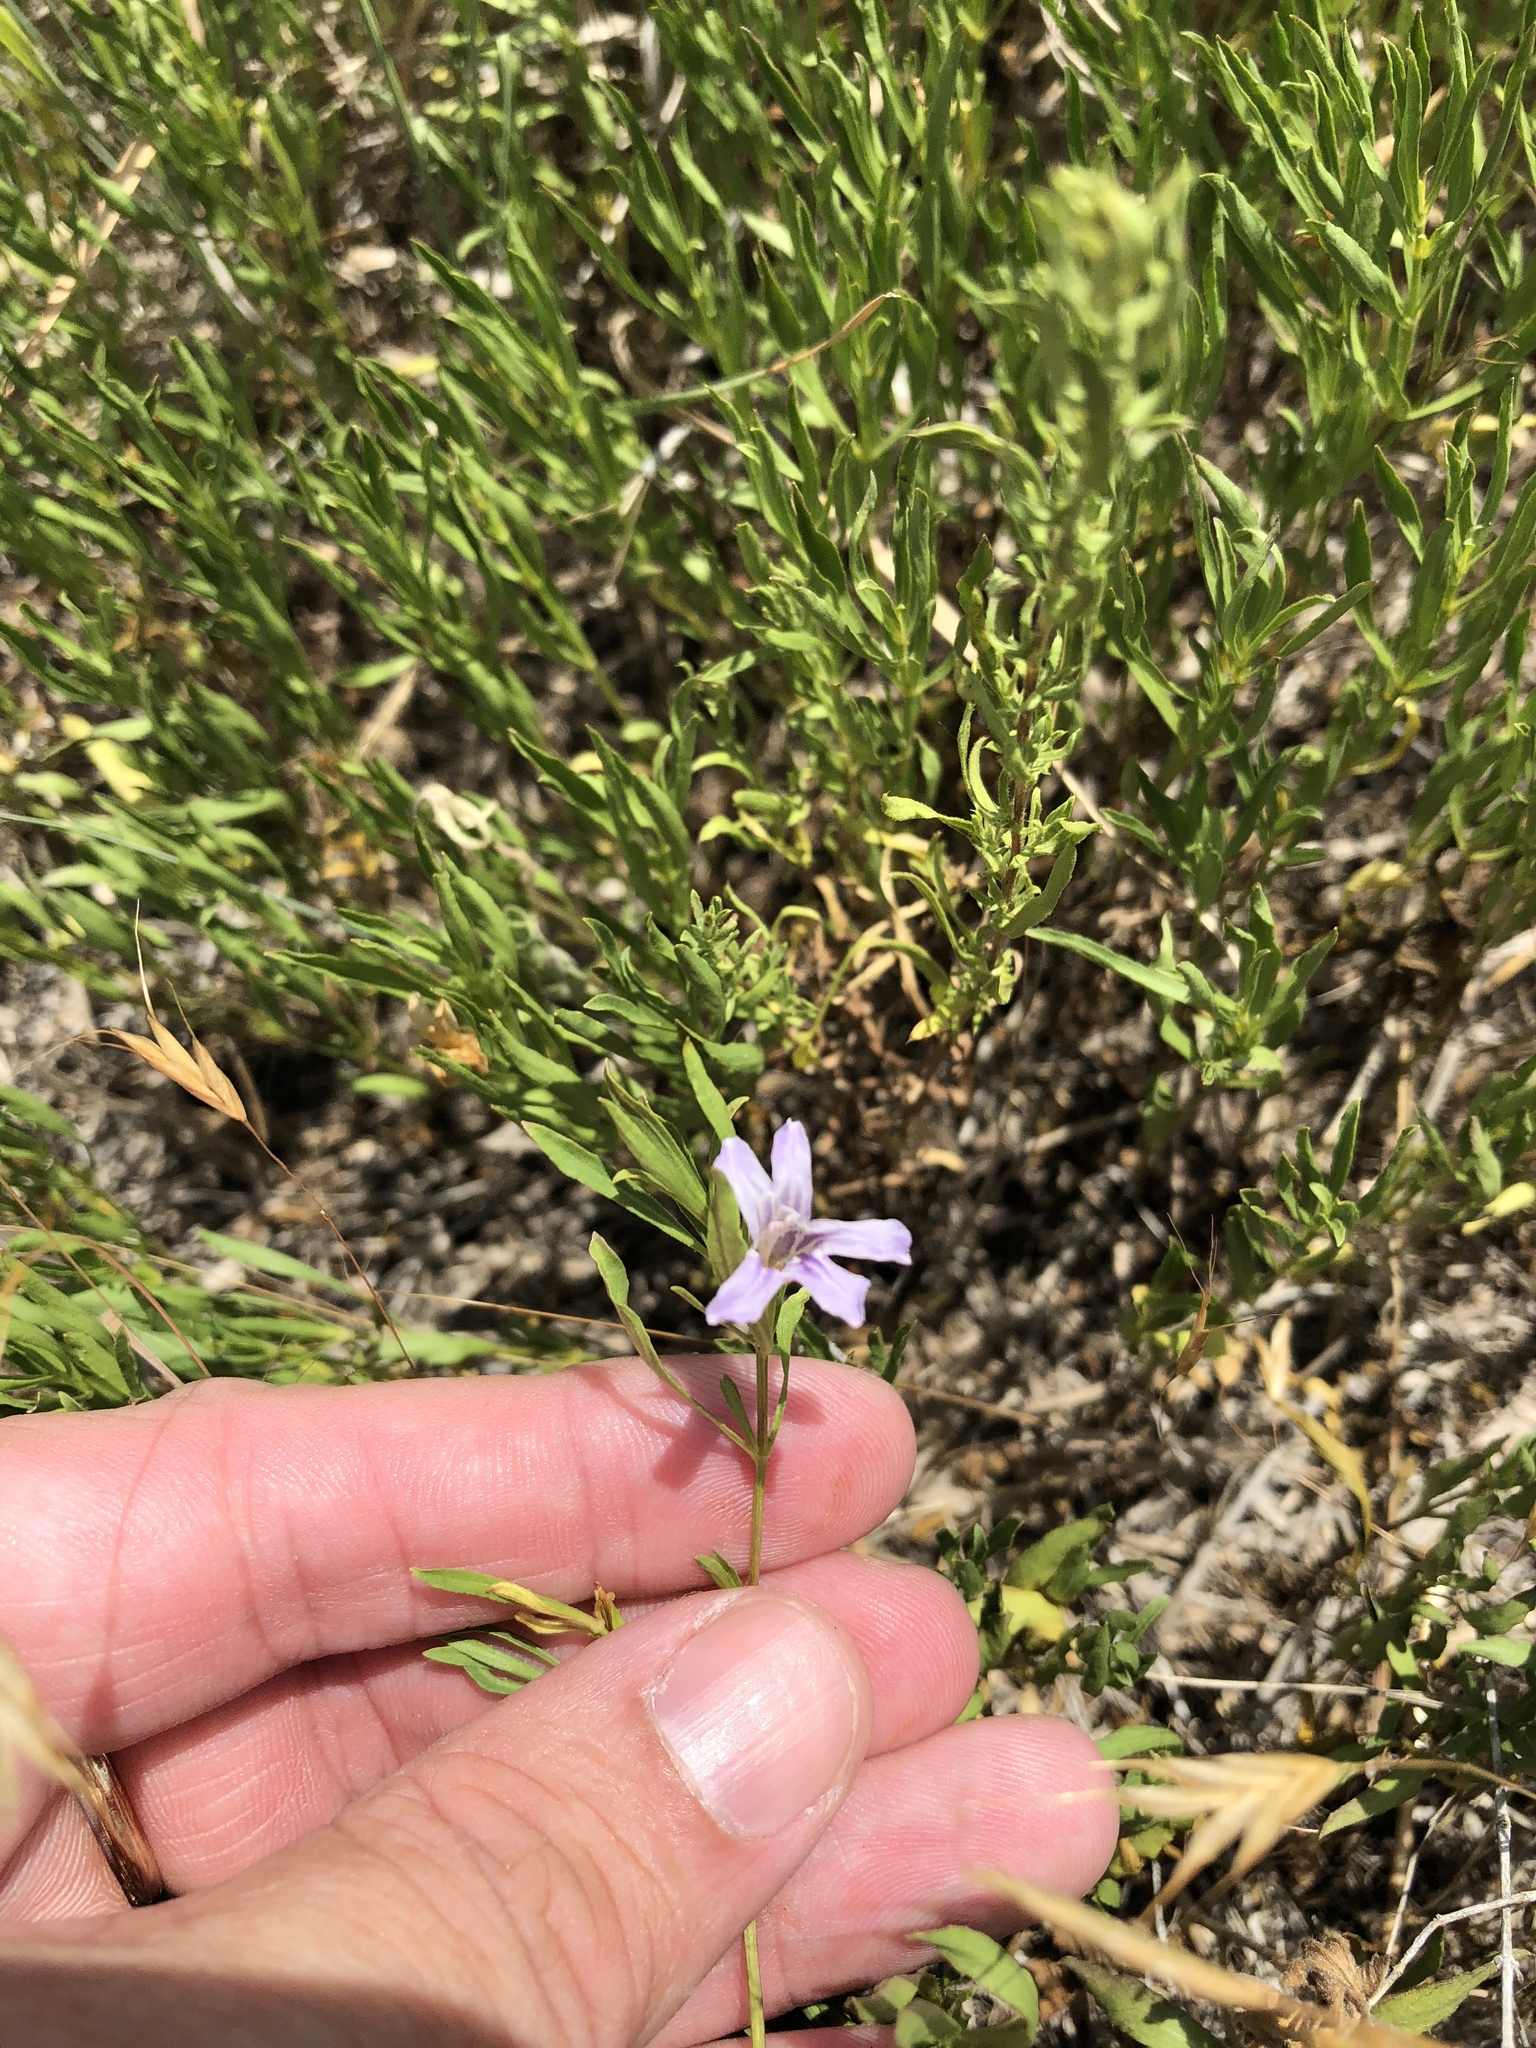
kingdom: Plantae
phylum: Tracheophyta
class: Magnoliopsida
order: Lamiales
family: Acanthaceae
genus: Dyschoriste
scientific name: Dyschoriste linearis
